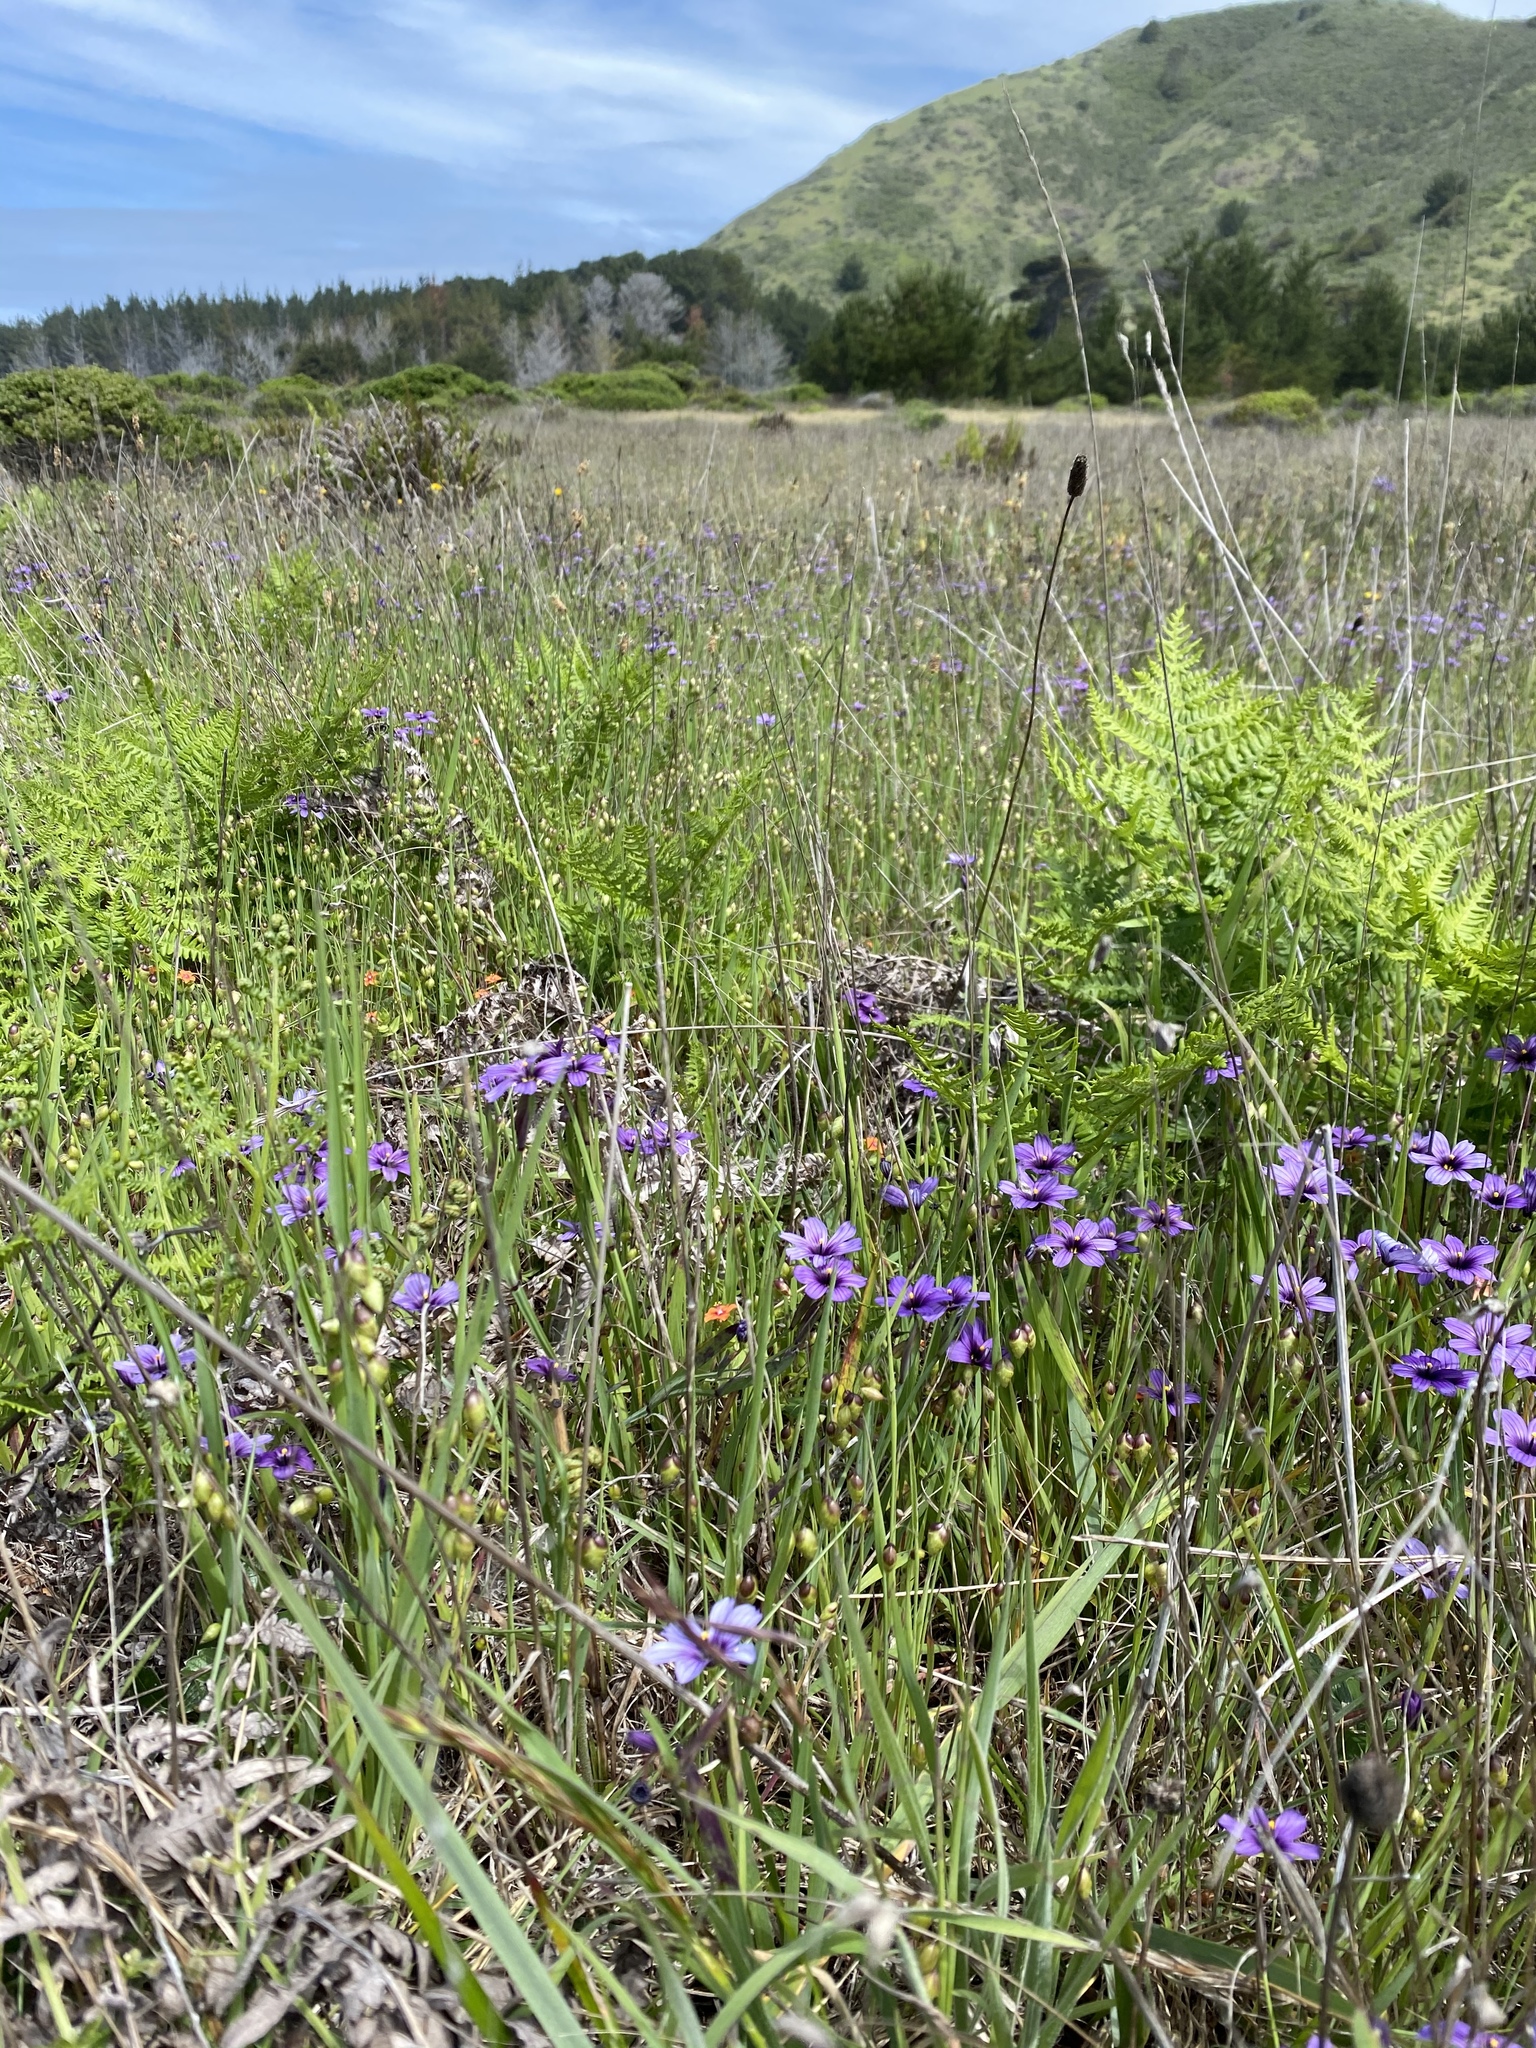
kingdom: Plantae
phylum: Tracheophyta
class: Liliopsida
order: Asparagales
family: Iridaceae
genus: Sisyrinchium
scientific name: Sisyrinchium bellum
